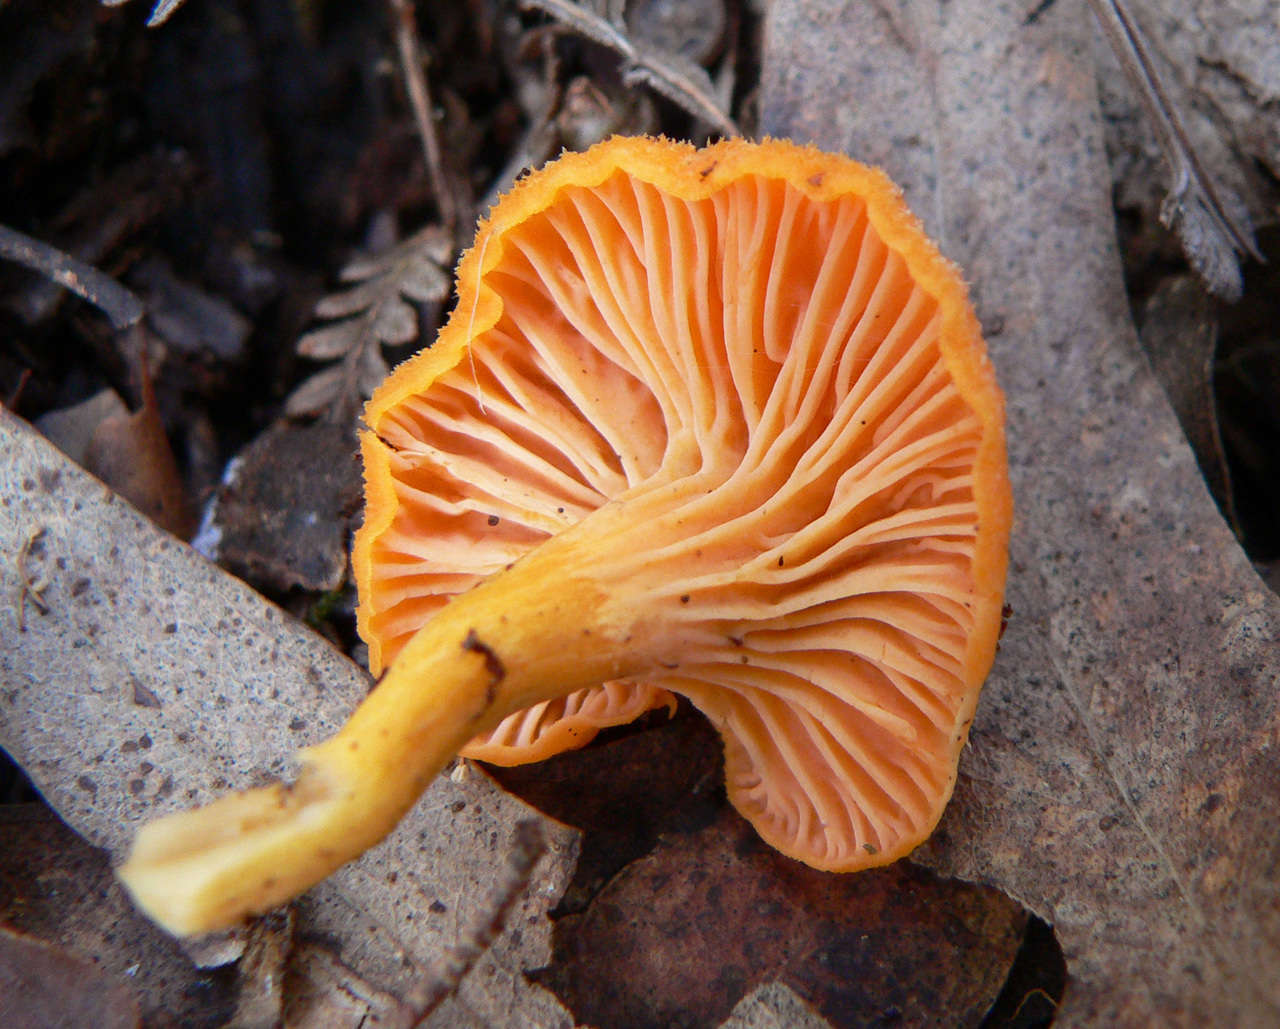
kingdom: Fungi
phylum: Basidiomycota
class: Agaricomycetes
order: Cantharellales
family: Hydnaceae
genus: Cantharellus
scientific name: Cantharellus
